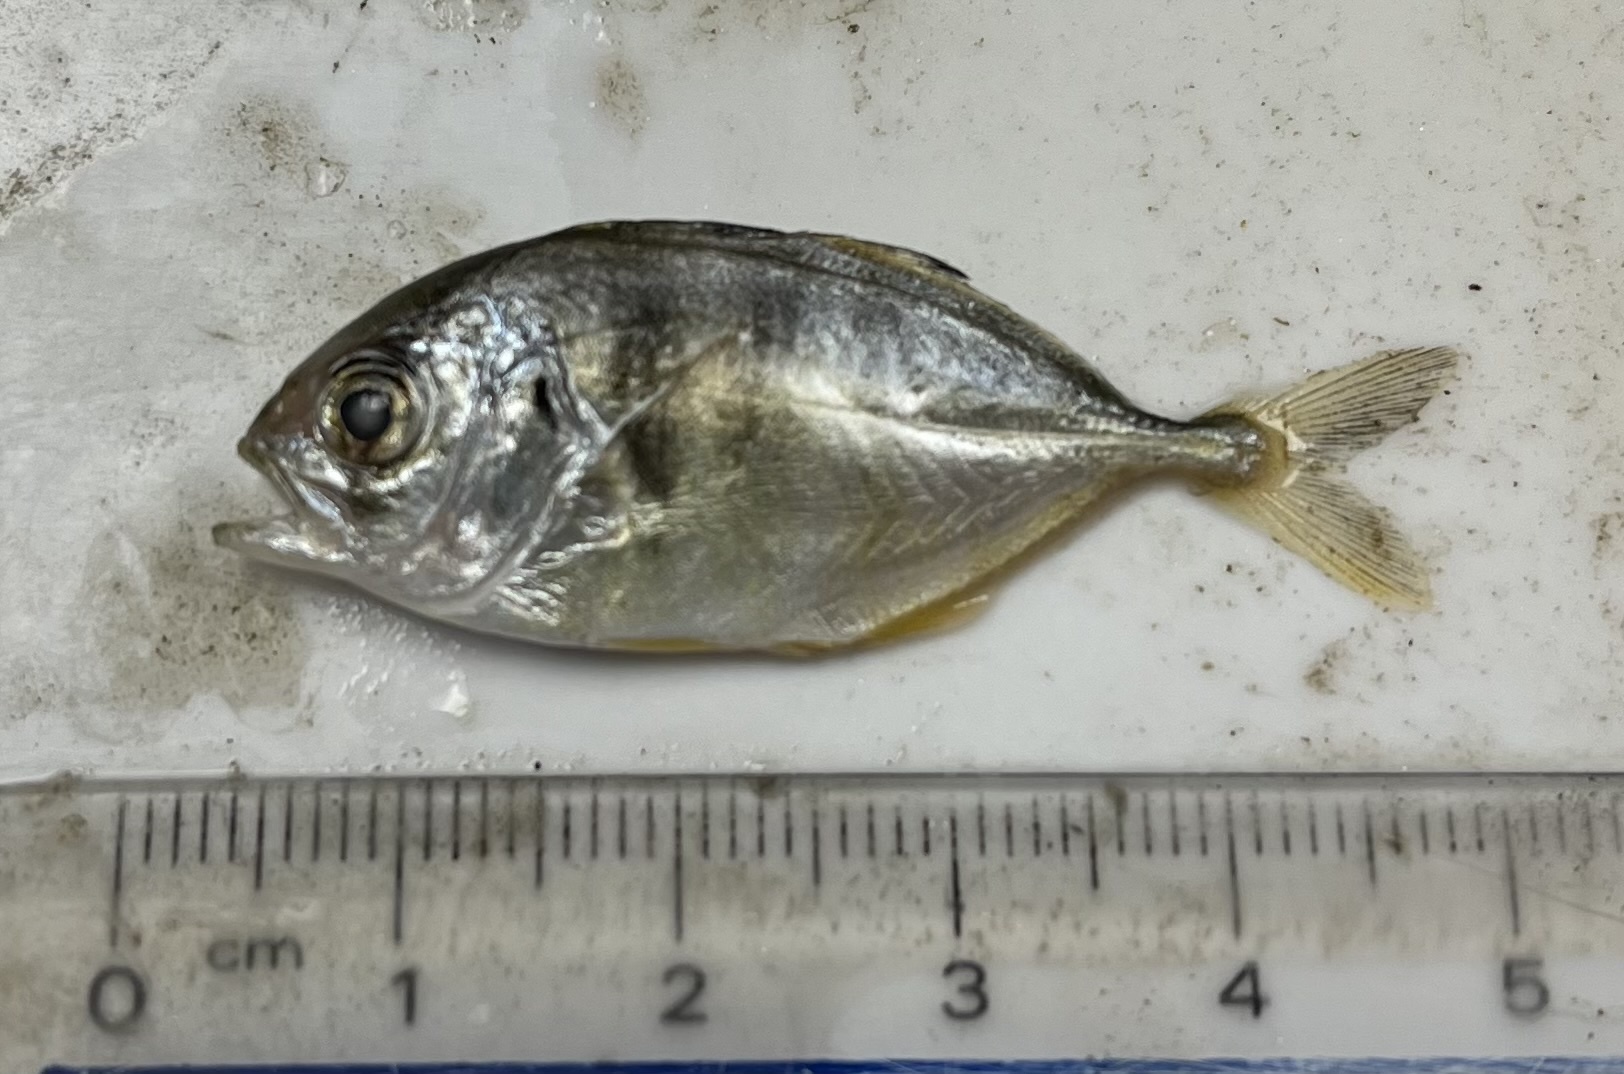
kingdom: Animalia
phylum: Chordata
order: Perciformes
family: Carangidae
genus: Caranx
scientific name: Caranx hippos
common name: Common jack
